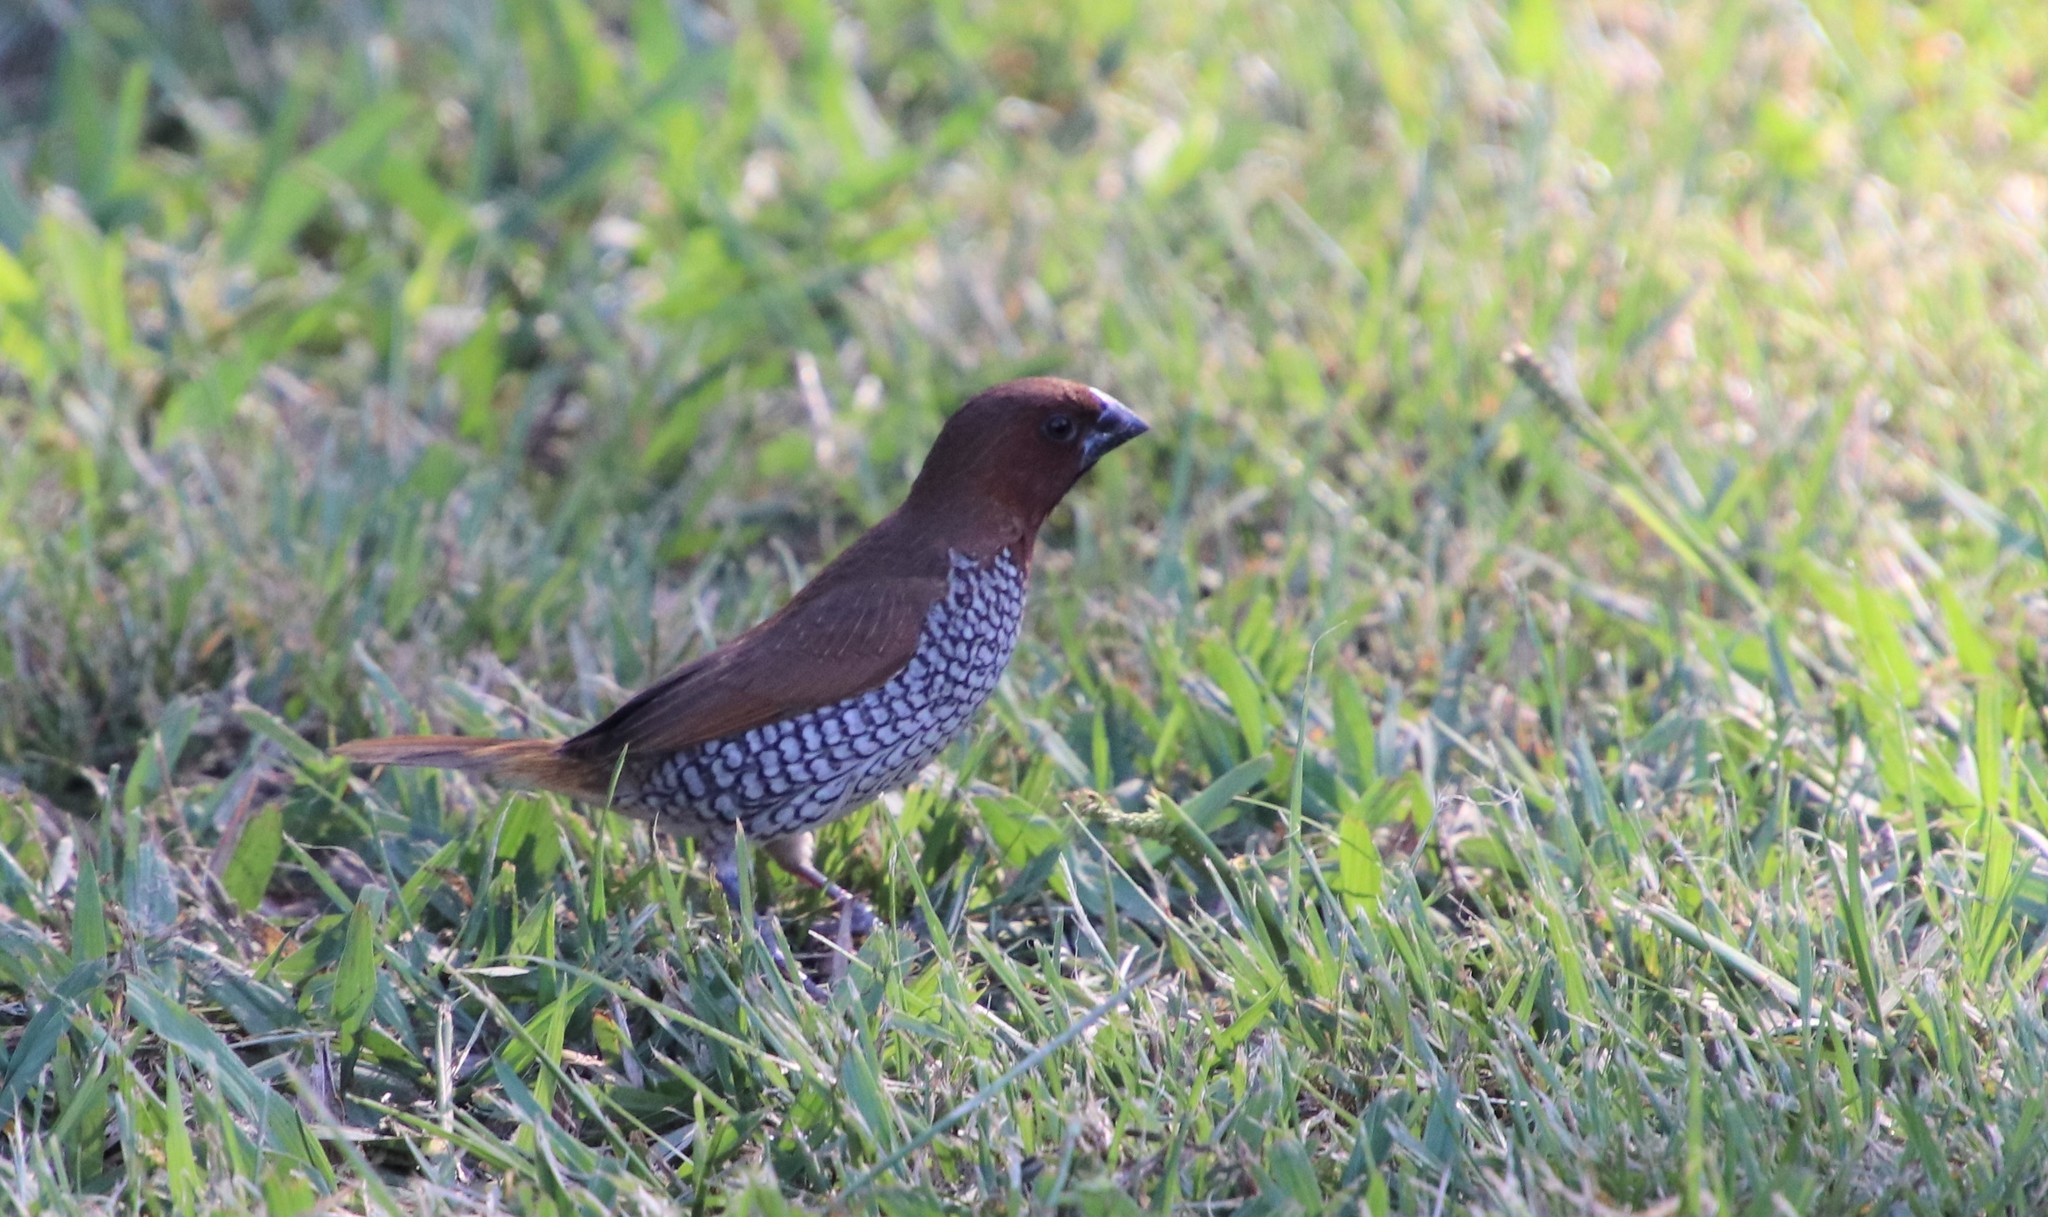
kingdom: Animalia
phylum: Chordata
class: Aves
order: Passeriformes
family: Estrildidae
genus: Lonchura
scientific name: Lonchura punctulata
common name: Scaly-breasted munia
